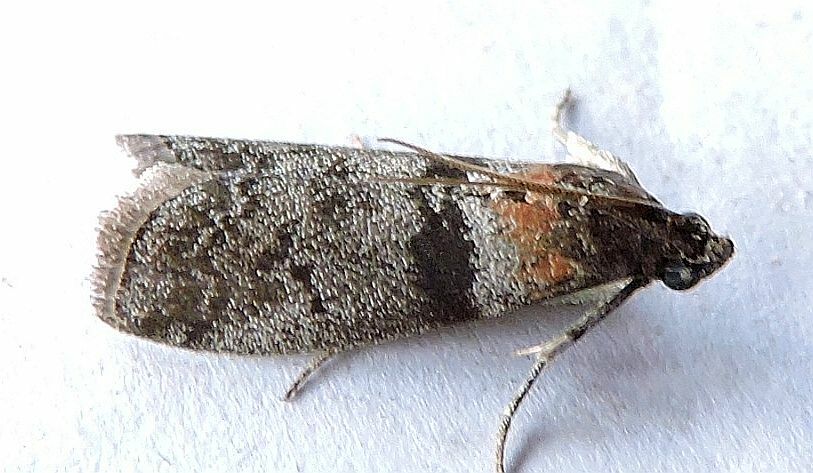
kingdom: Animalia
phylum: Arthropoda
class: Insecta
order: Lepidoptera
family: Pyralidae
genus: Sciota
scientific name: Sciota subfuscella
